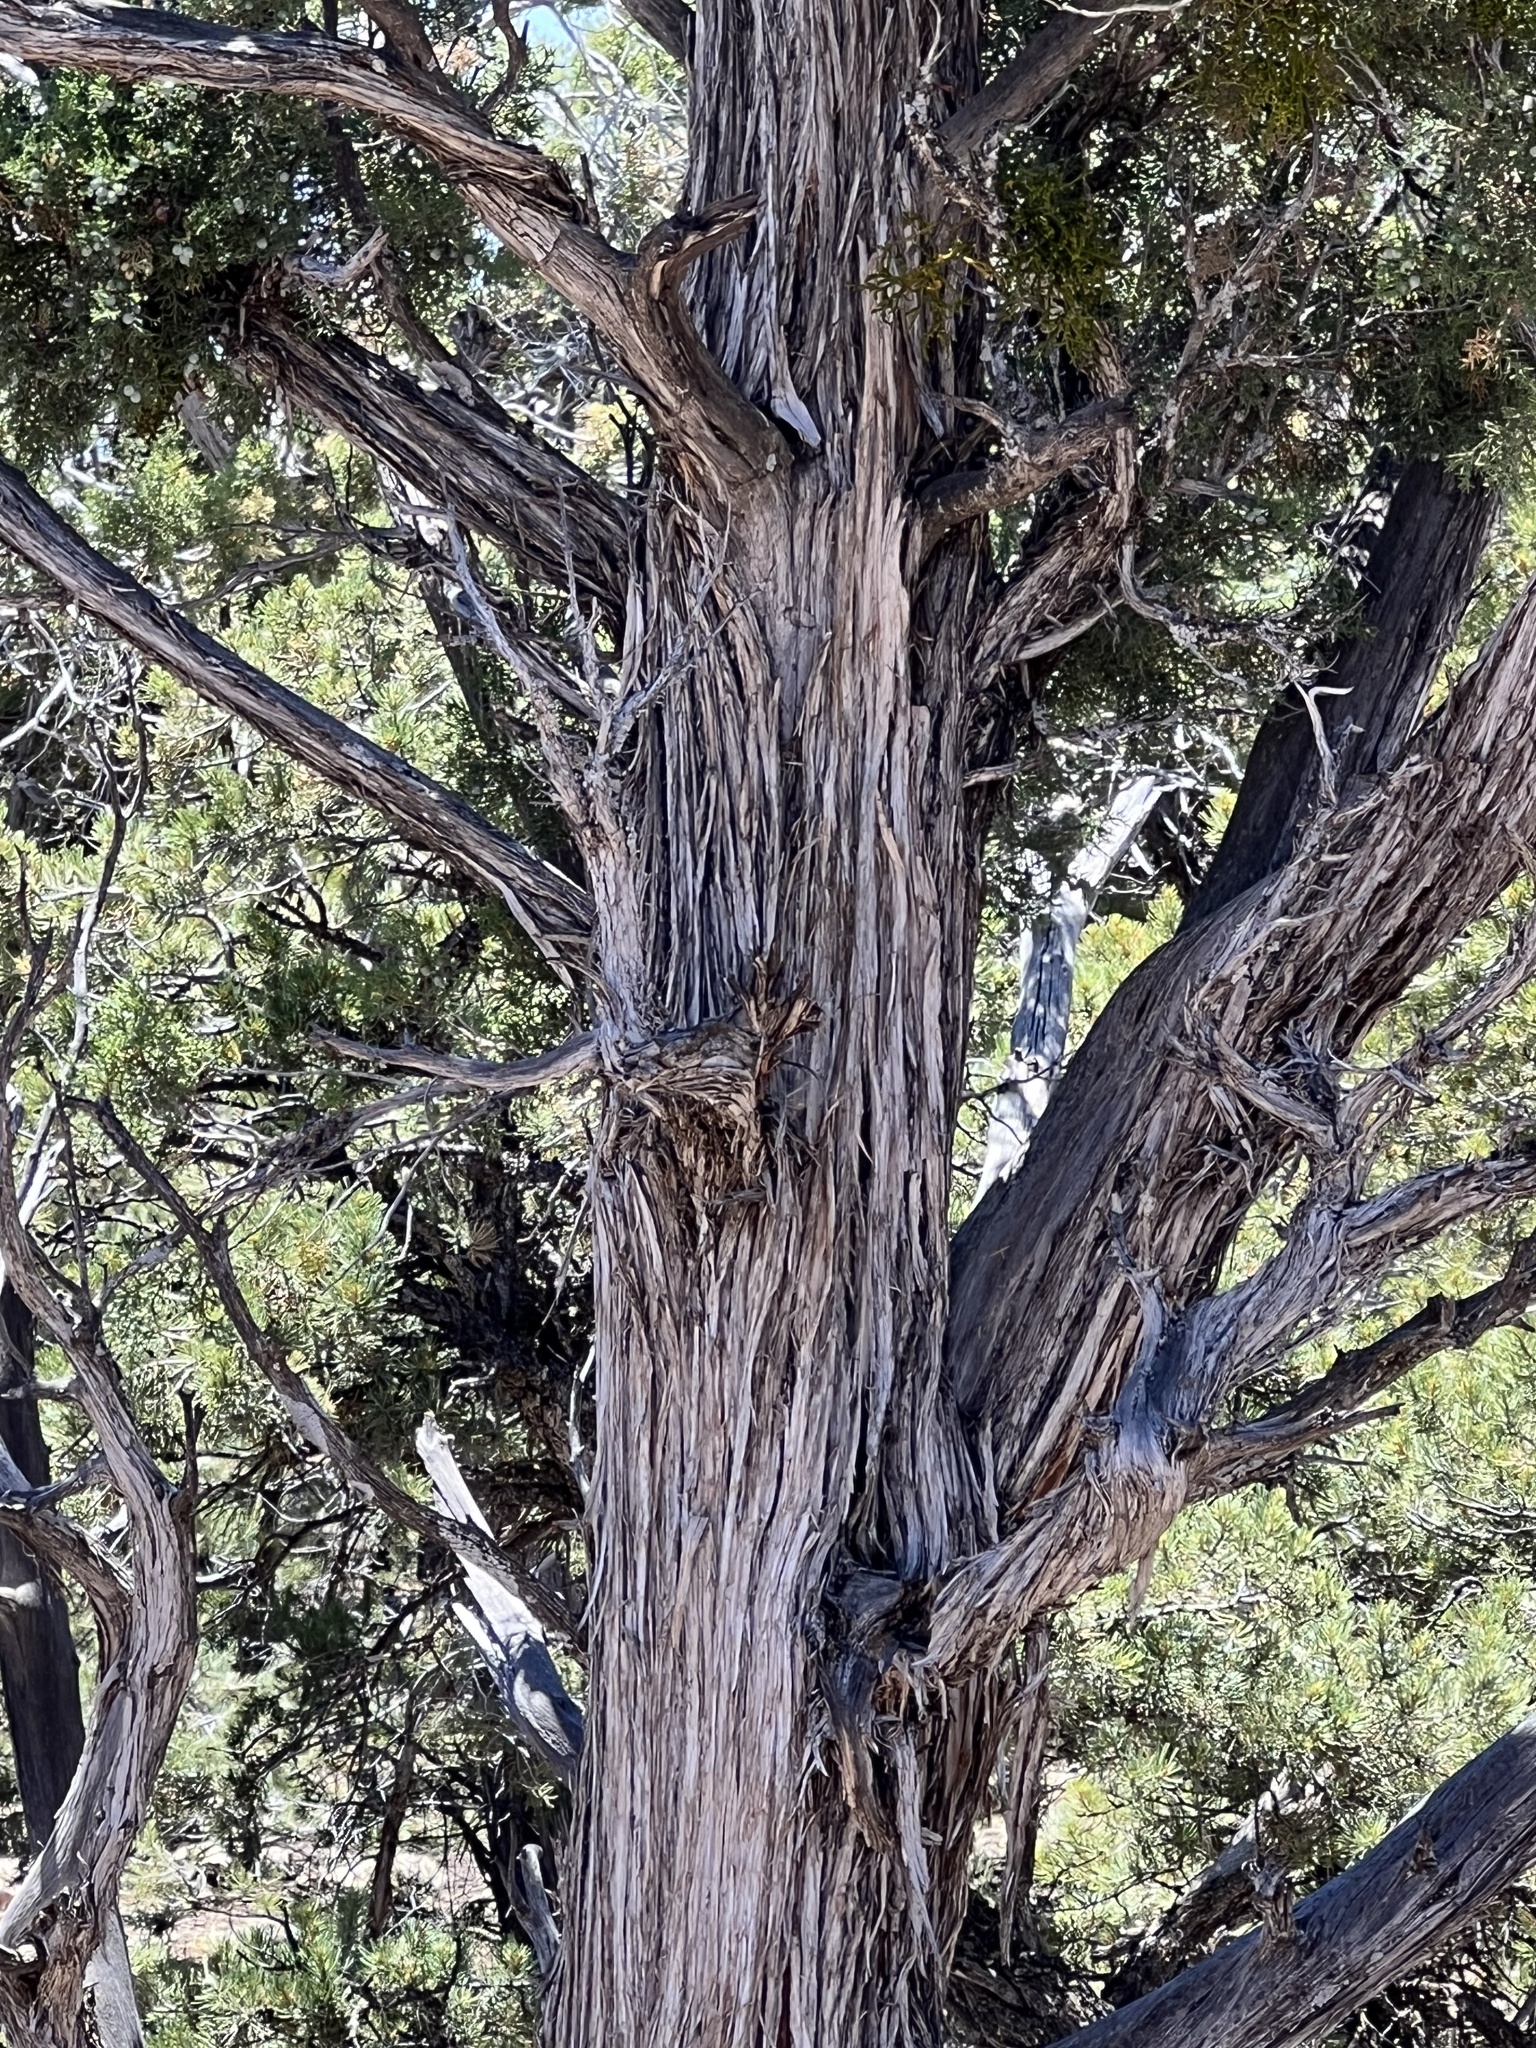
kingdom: Plantae
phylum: Tracheophyta
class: Pinopsida
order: Pinales
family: Cupressaceae
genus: Juniperus
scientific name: Juniperus osteosperma
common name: Utah juniper
